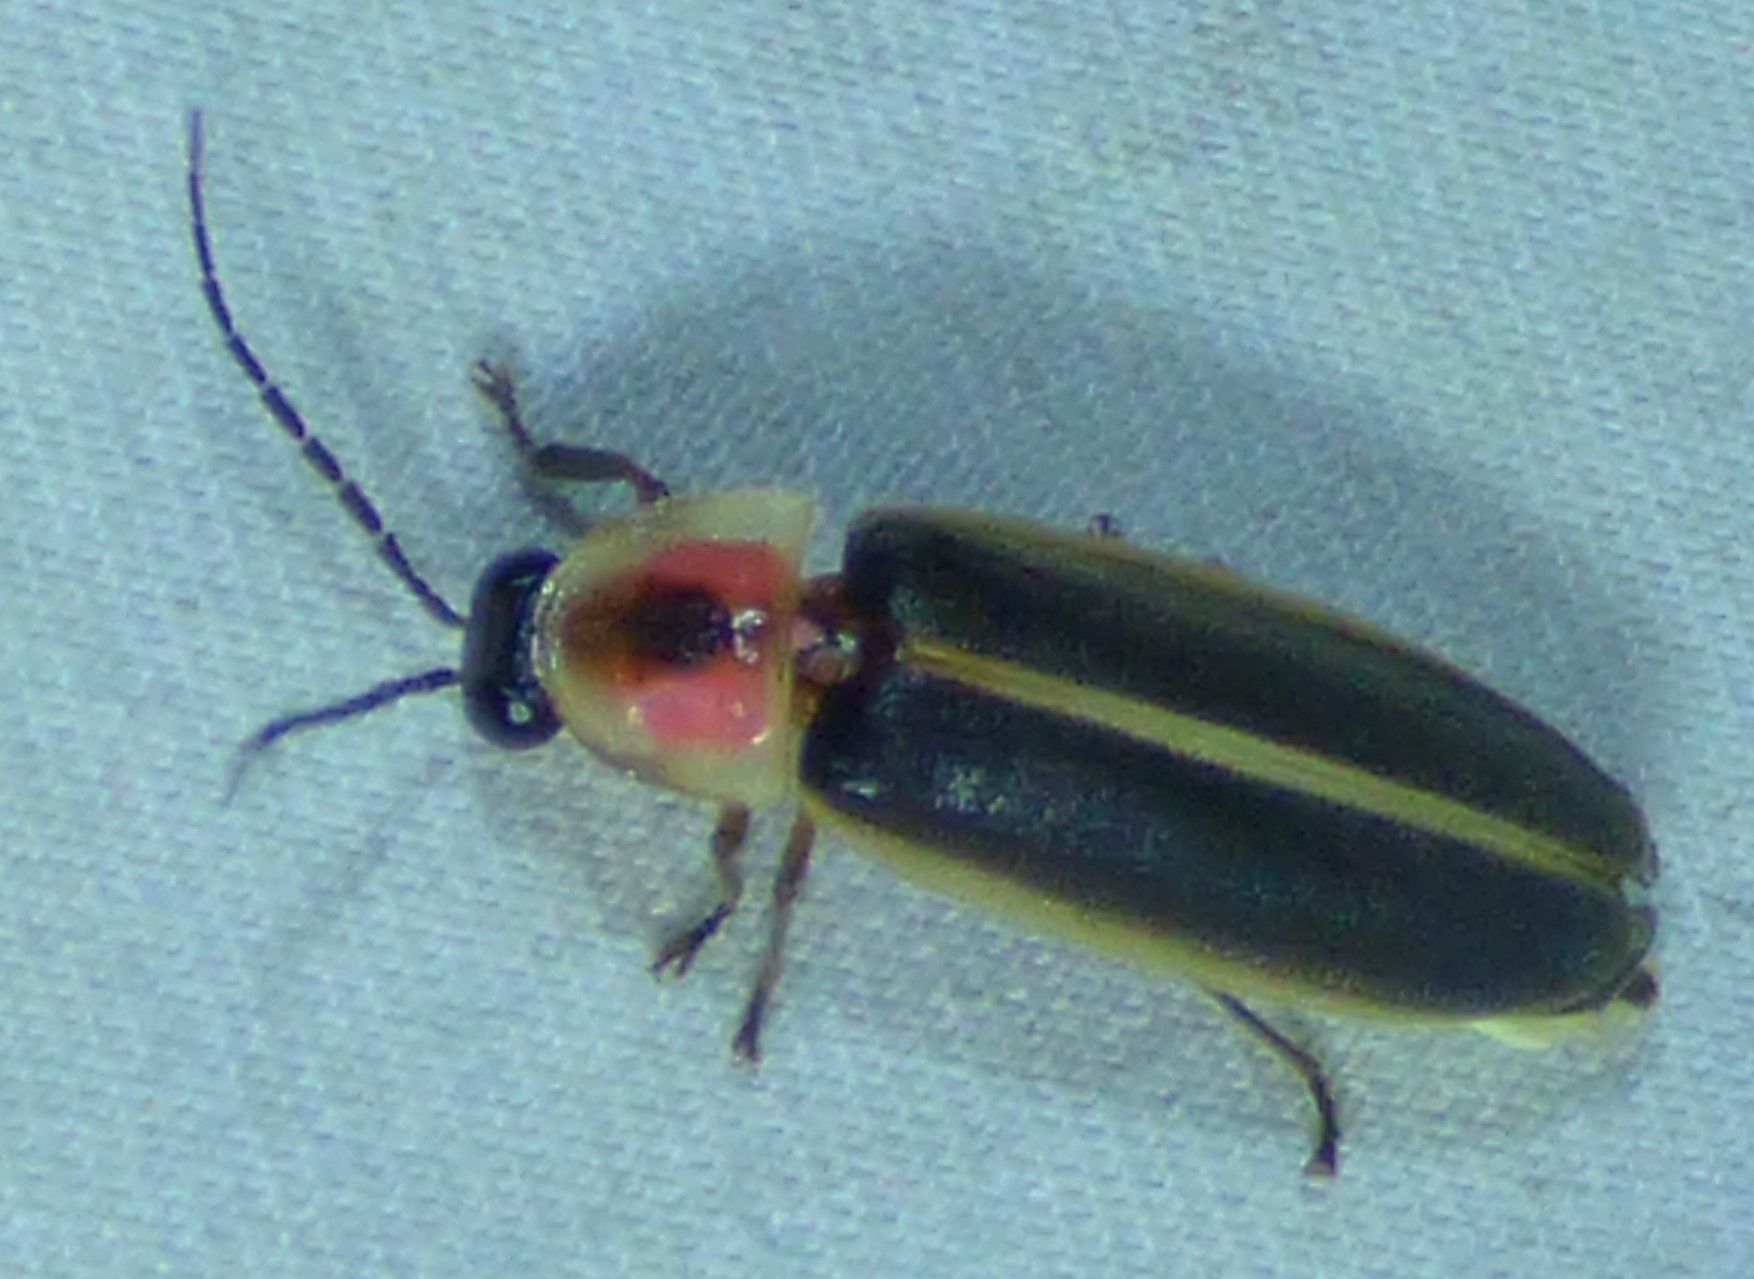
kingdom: Animalia
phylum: Arthropoda
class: Insecta
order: Coleoptera
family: Lampyridae
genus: Photinus
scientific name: Photinus pyralis
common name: Big dipper firefly
